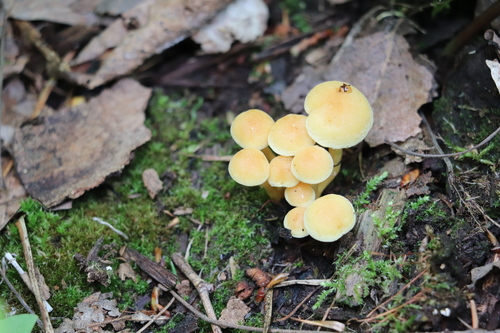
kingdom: Fungi
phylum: Basidiomycota
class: Agaricomycetes
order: Agaricales
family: Strophariaceae
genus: Hypholoma
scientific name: Hypholoma fasciculare
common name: Sulphur tuft
